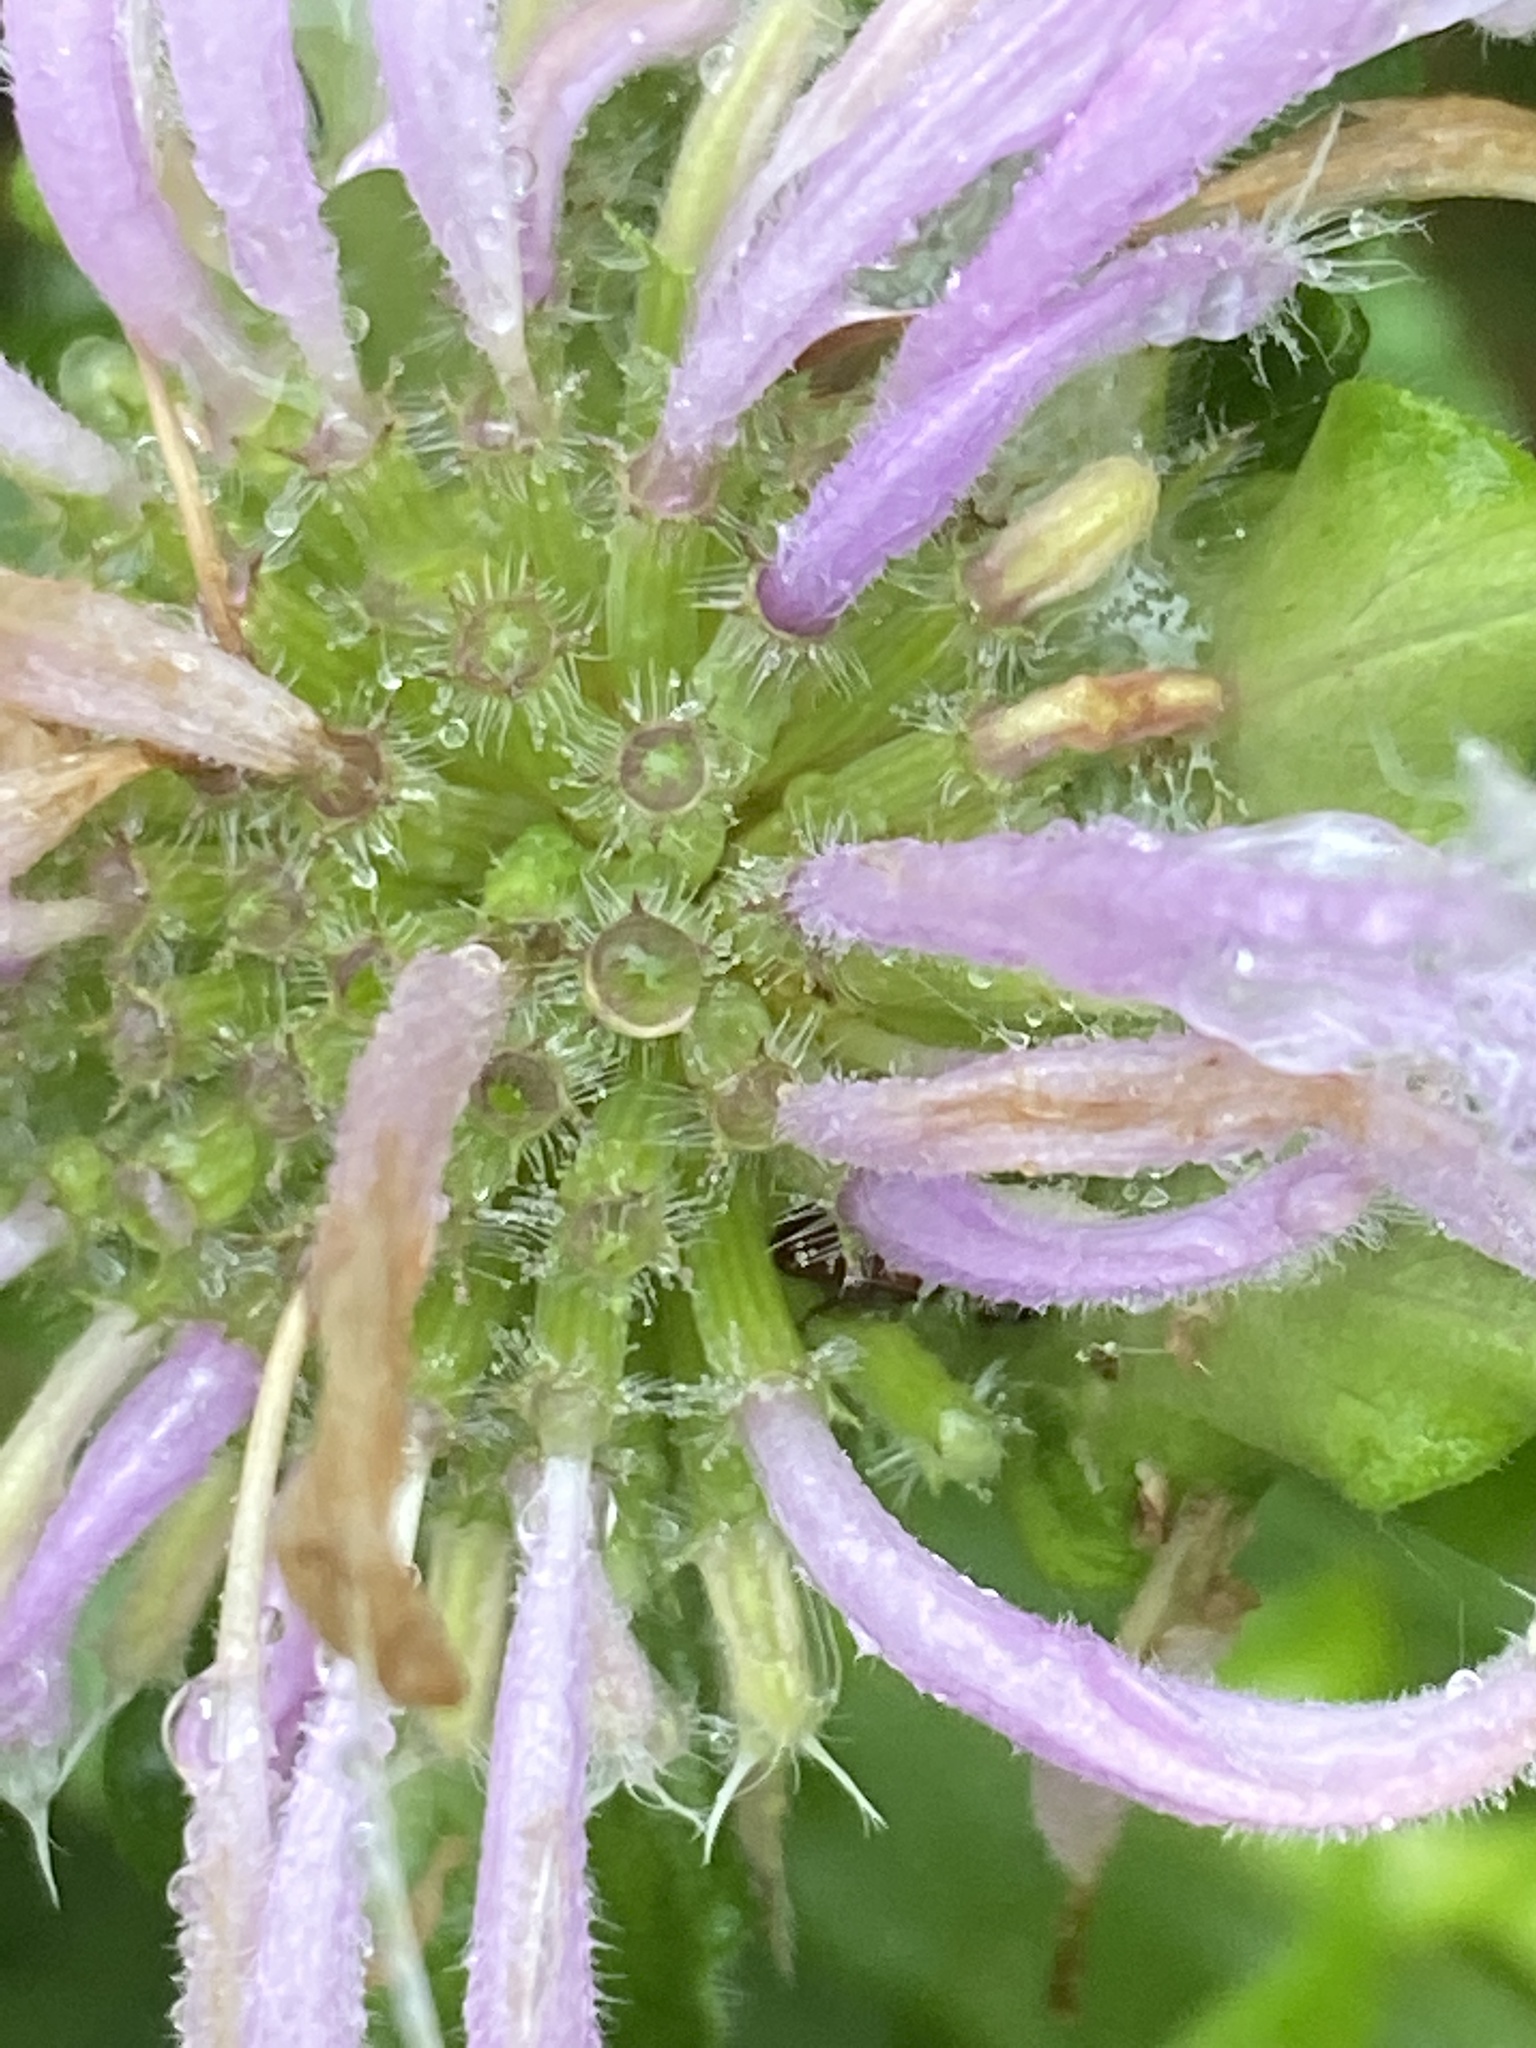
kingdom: Plantae
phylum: Tracheophyta
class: Magnoliopsida
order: Lamiales
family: Lamiaceae
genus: Monarda
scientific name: Monarda fistulosa
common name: Purple beebalm
